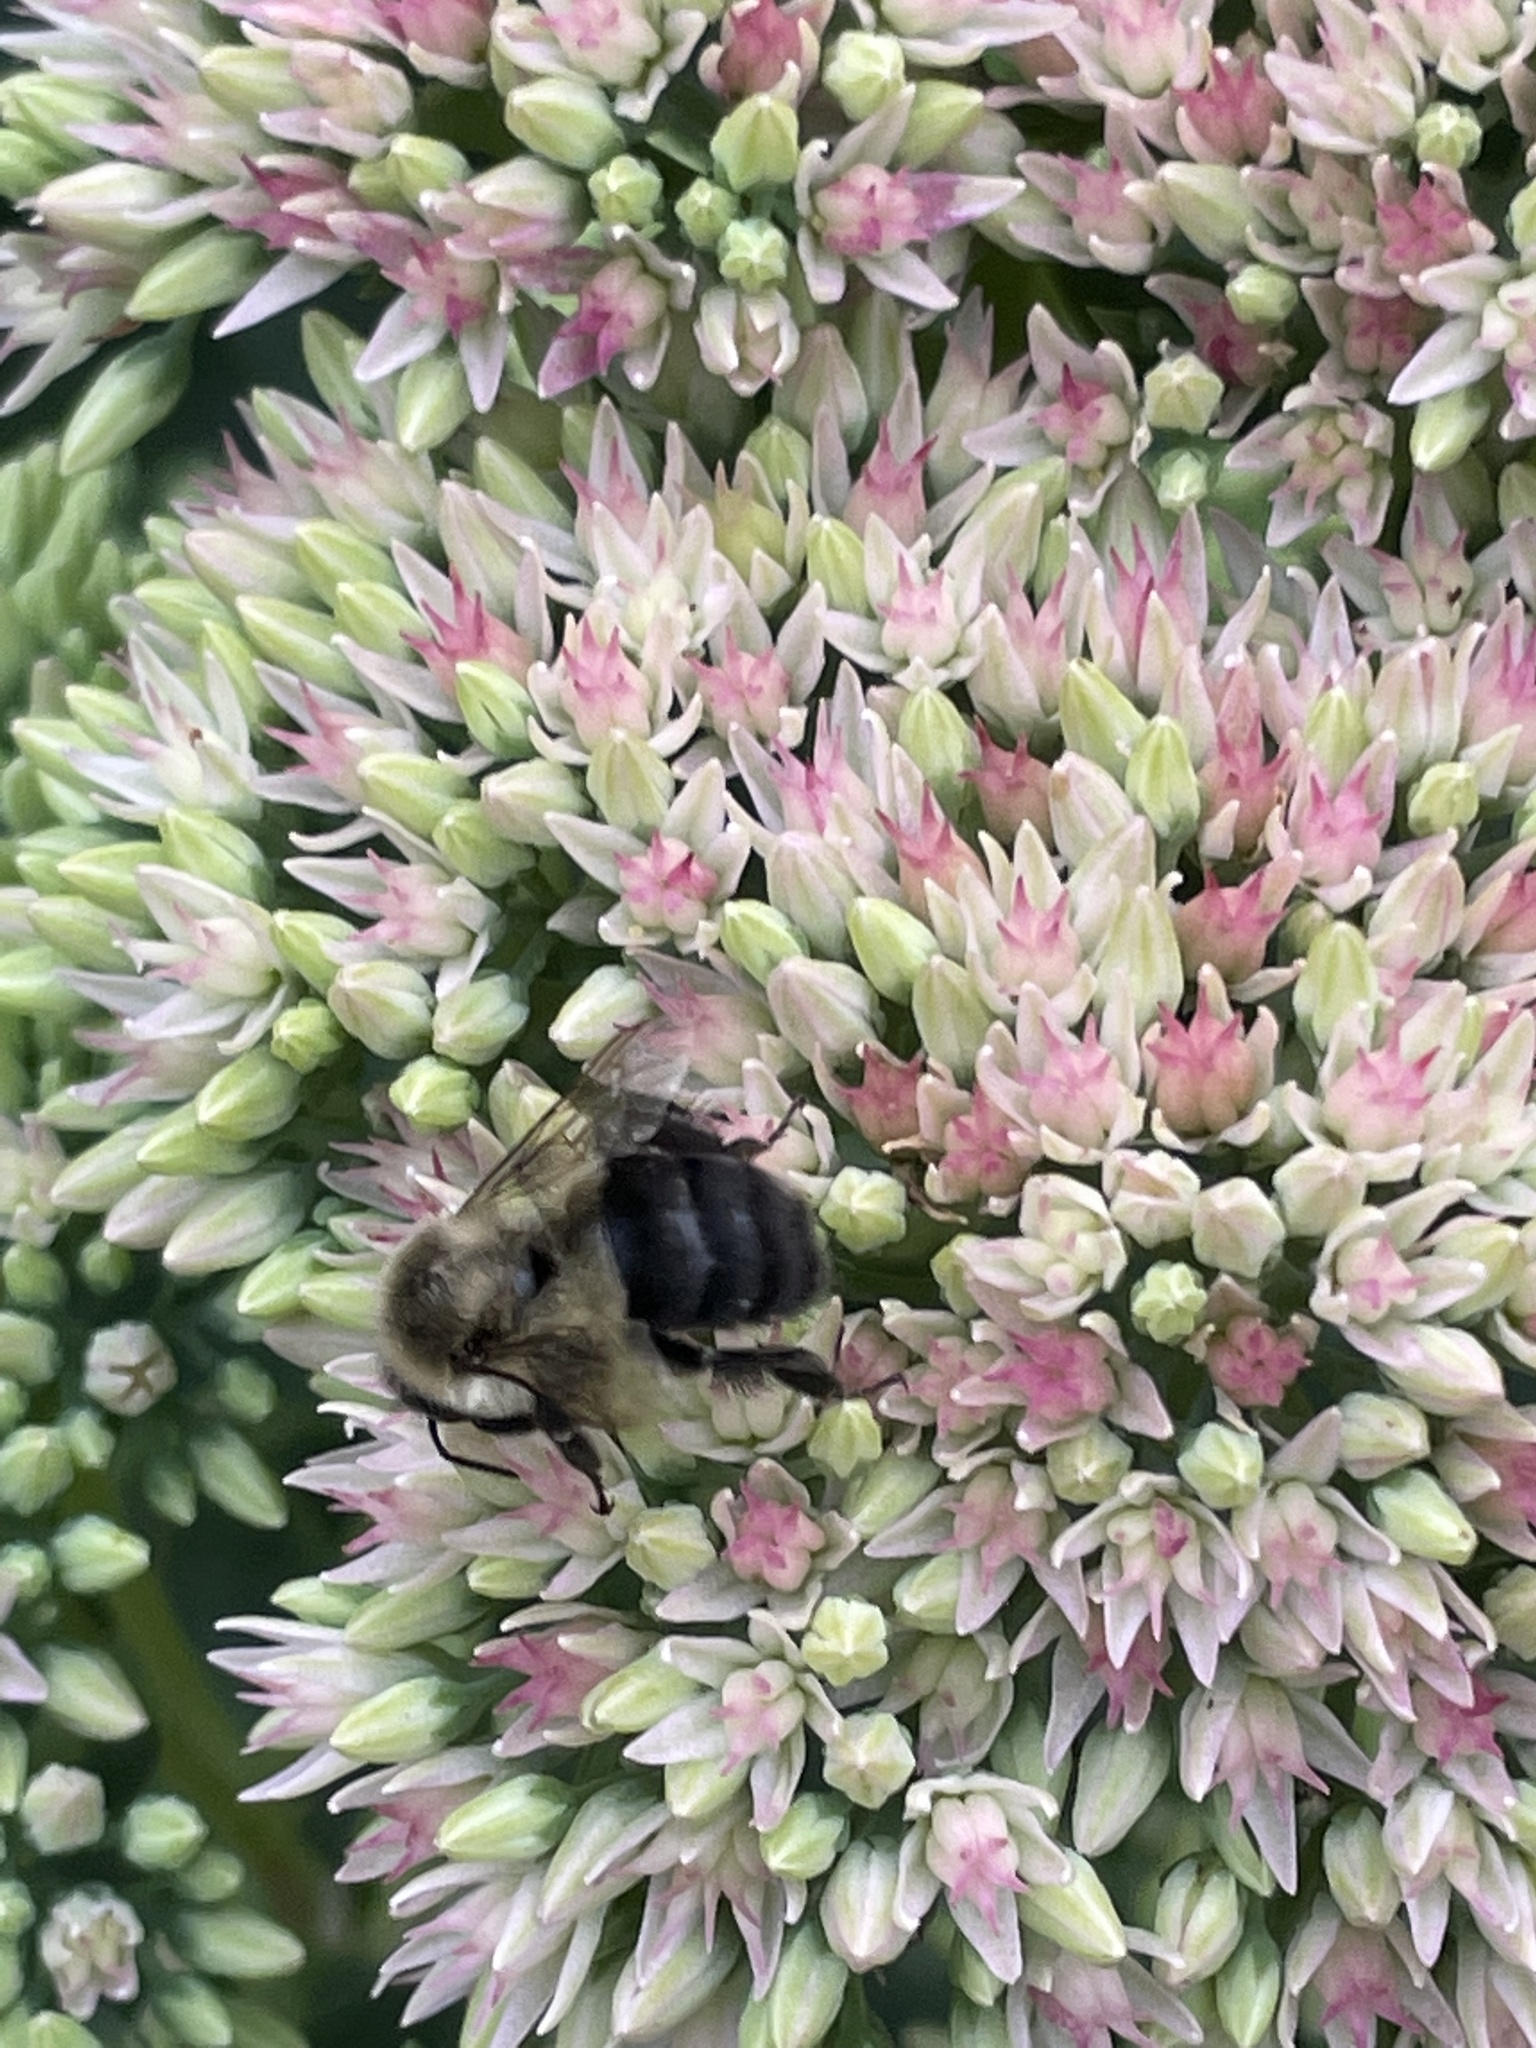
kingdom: Animalia
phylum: Arthropoda
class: Insecta
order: Hymenoptera
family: Apidae
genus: Bombus
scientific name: Bombus impatiens
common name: Common eastern bumble bee
